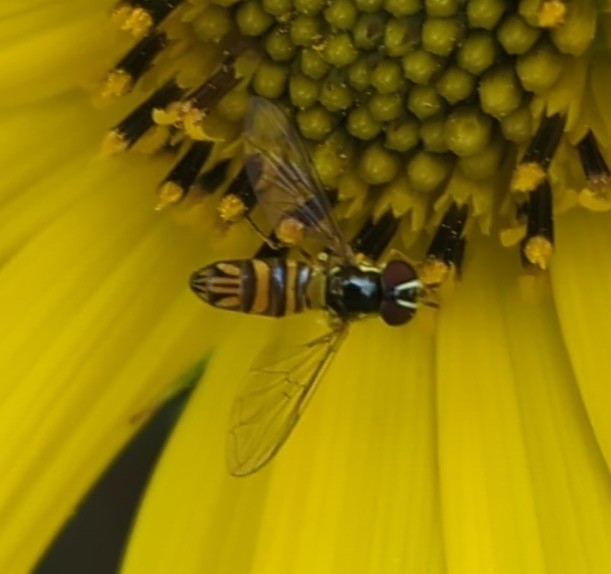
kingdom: Animalia
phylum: Arthropoda
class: Insecta
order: Diptera
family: Syrphidae
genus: Allograpta
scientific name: Allograpta obliqua
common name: Common oblique syrphid
